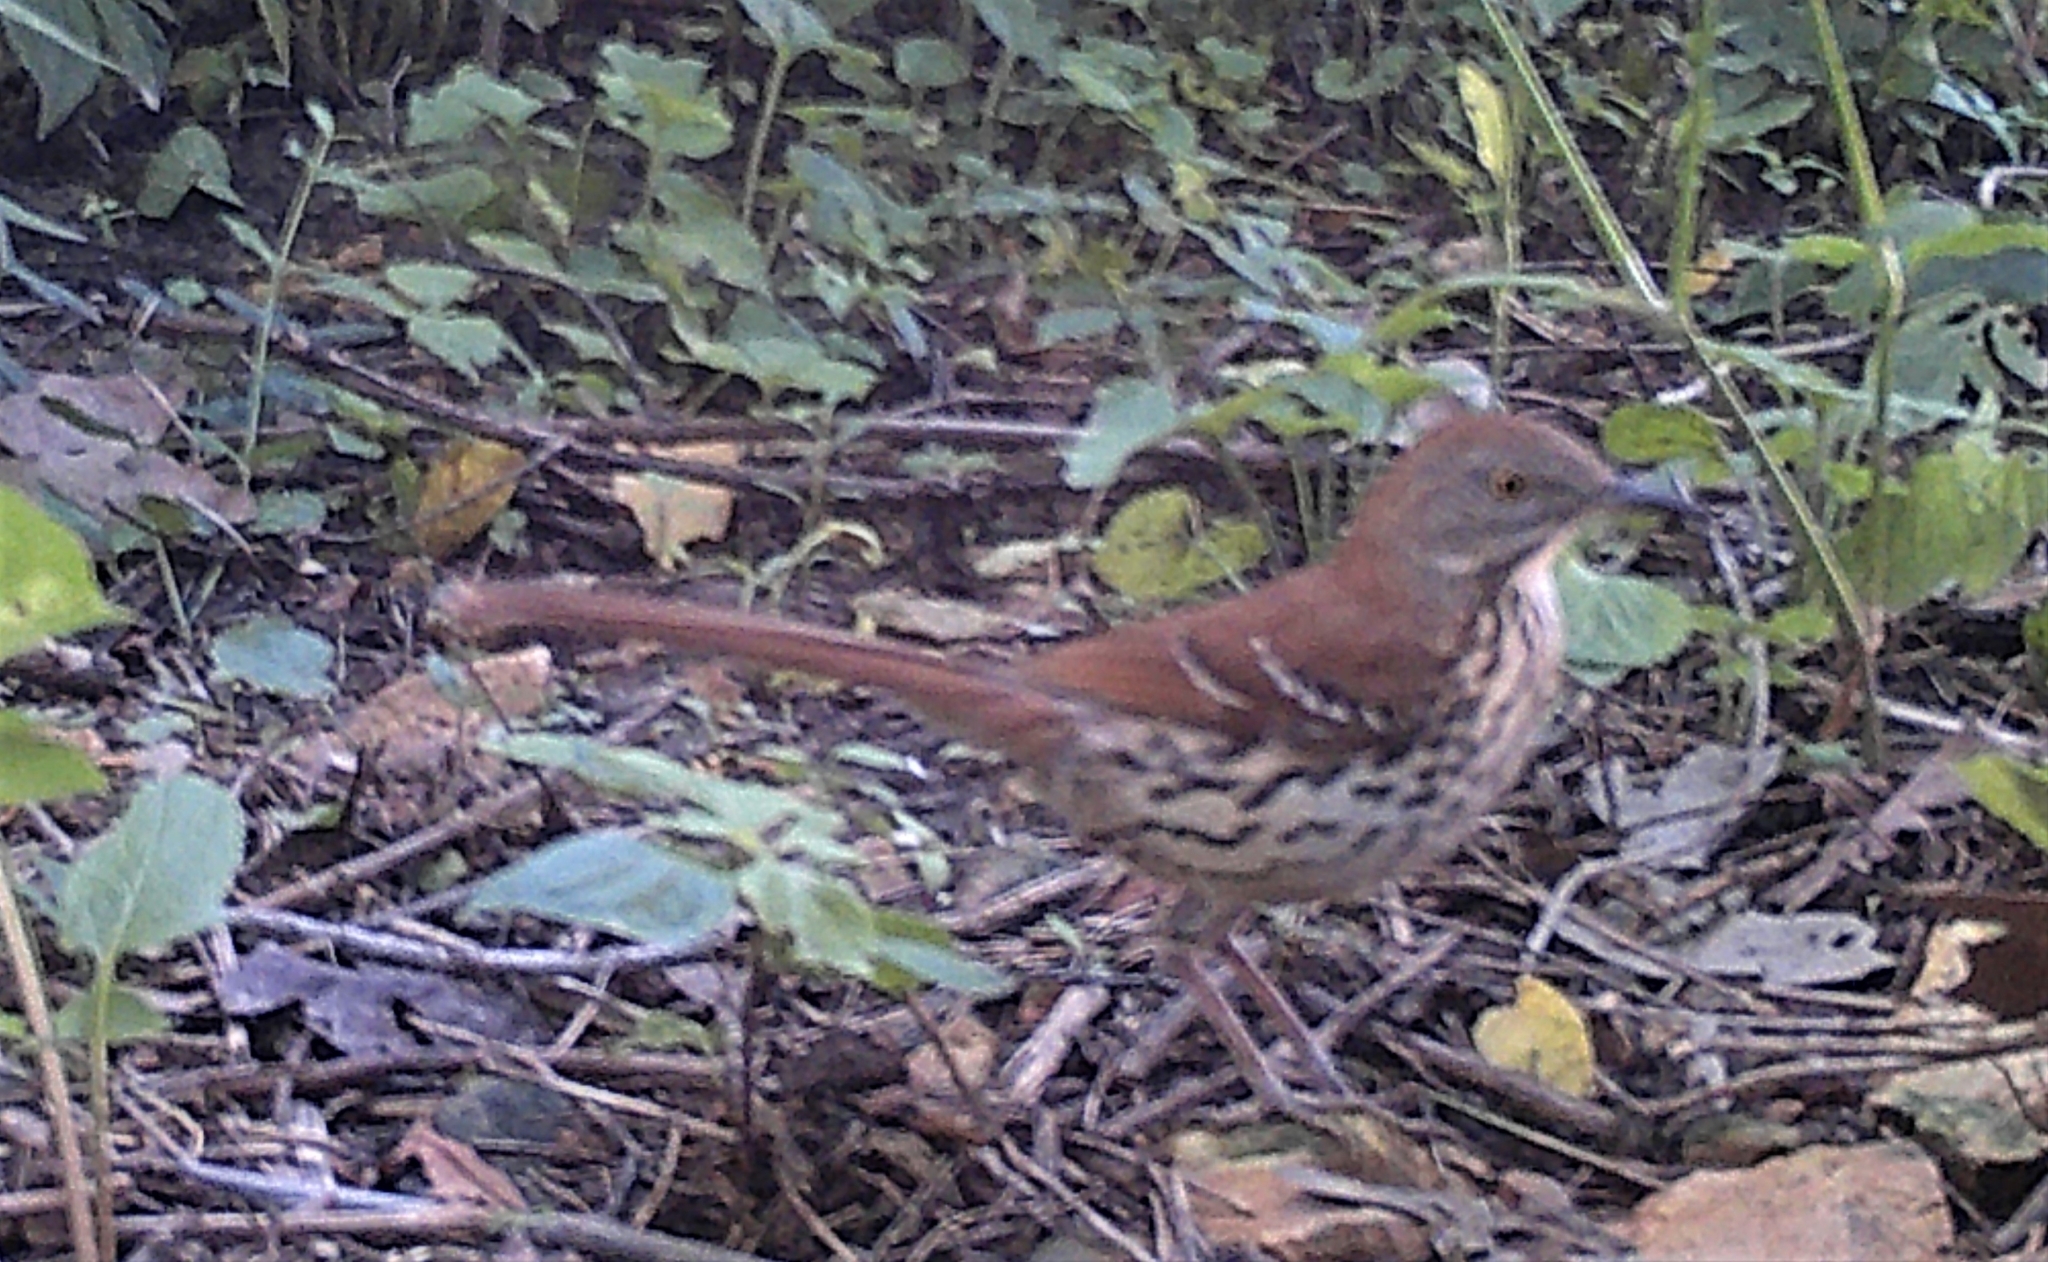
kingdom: Animalia
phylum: Chordata
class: Aves
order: Passeriformes
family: Mimidae
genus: Toxostoma
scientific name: Toxostoma rufum
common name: Brown thrasher
